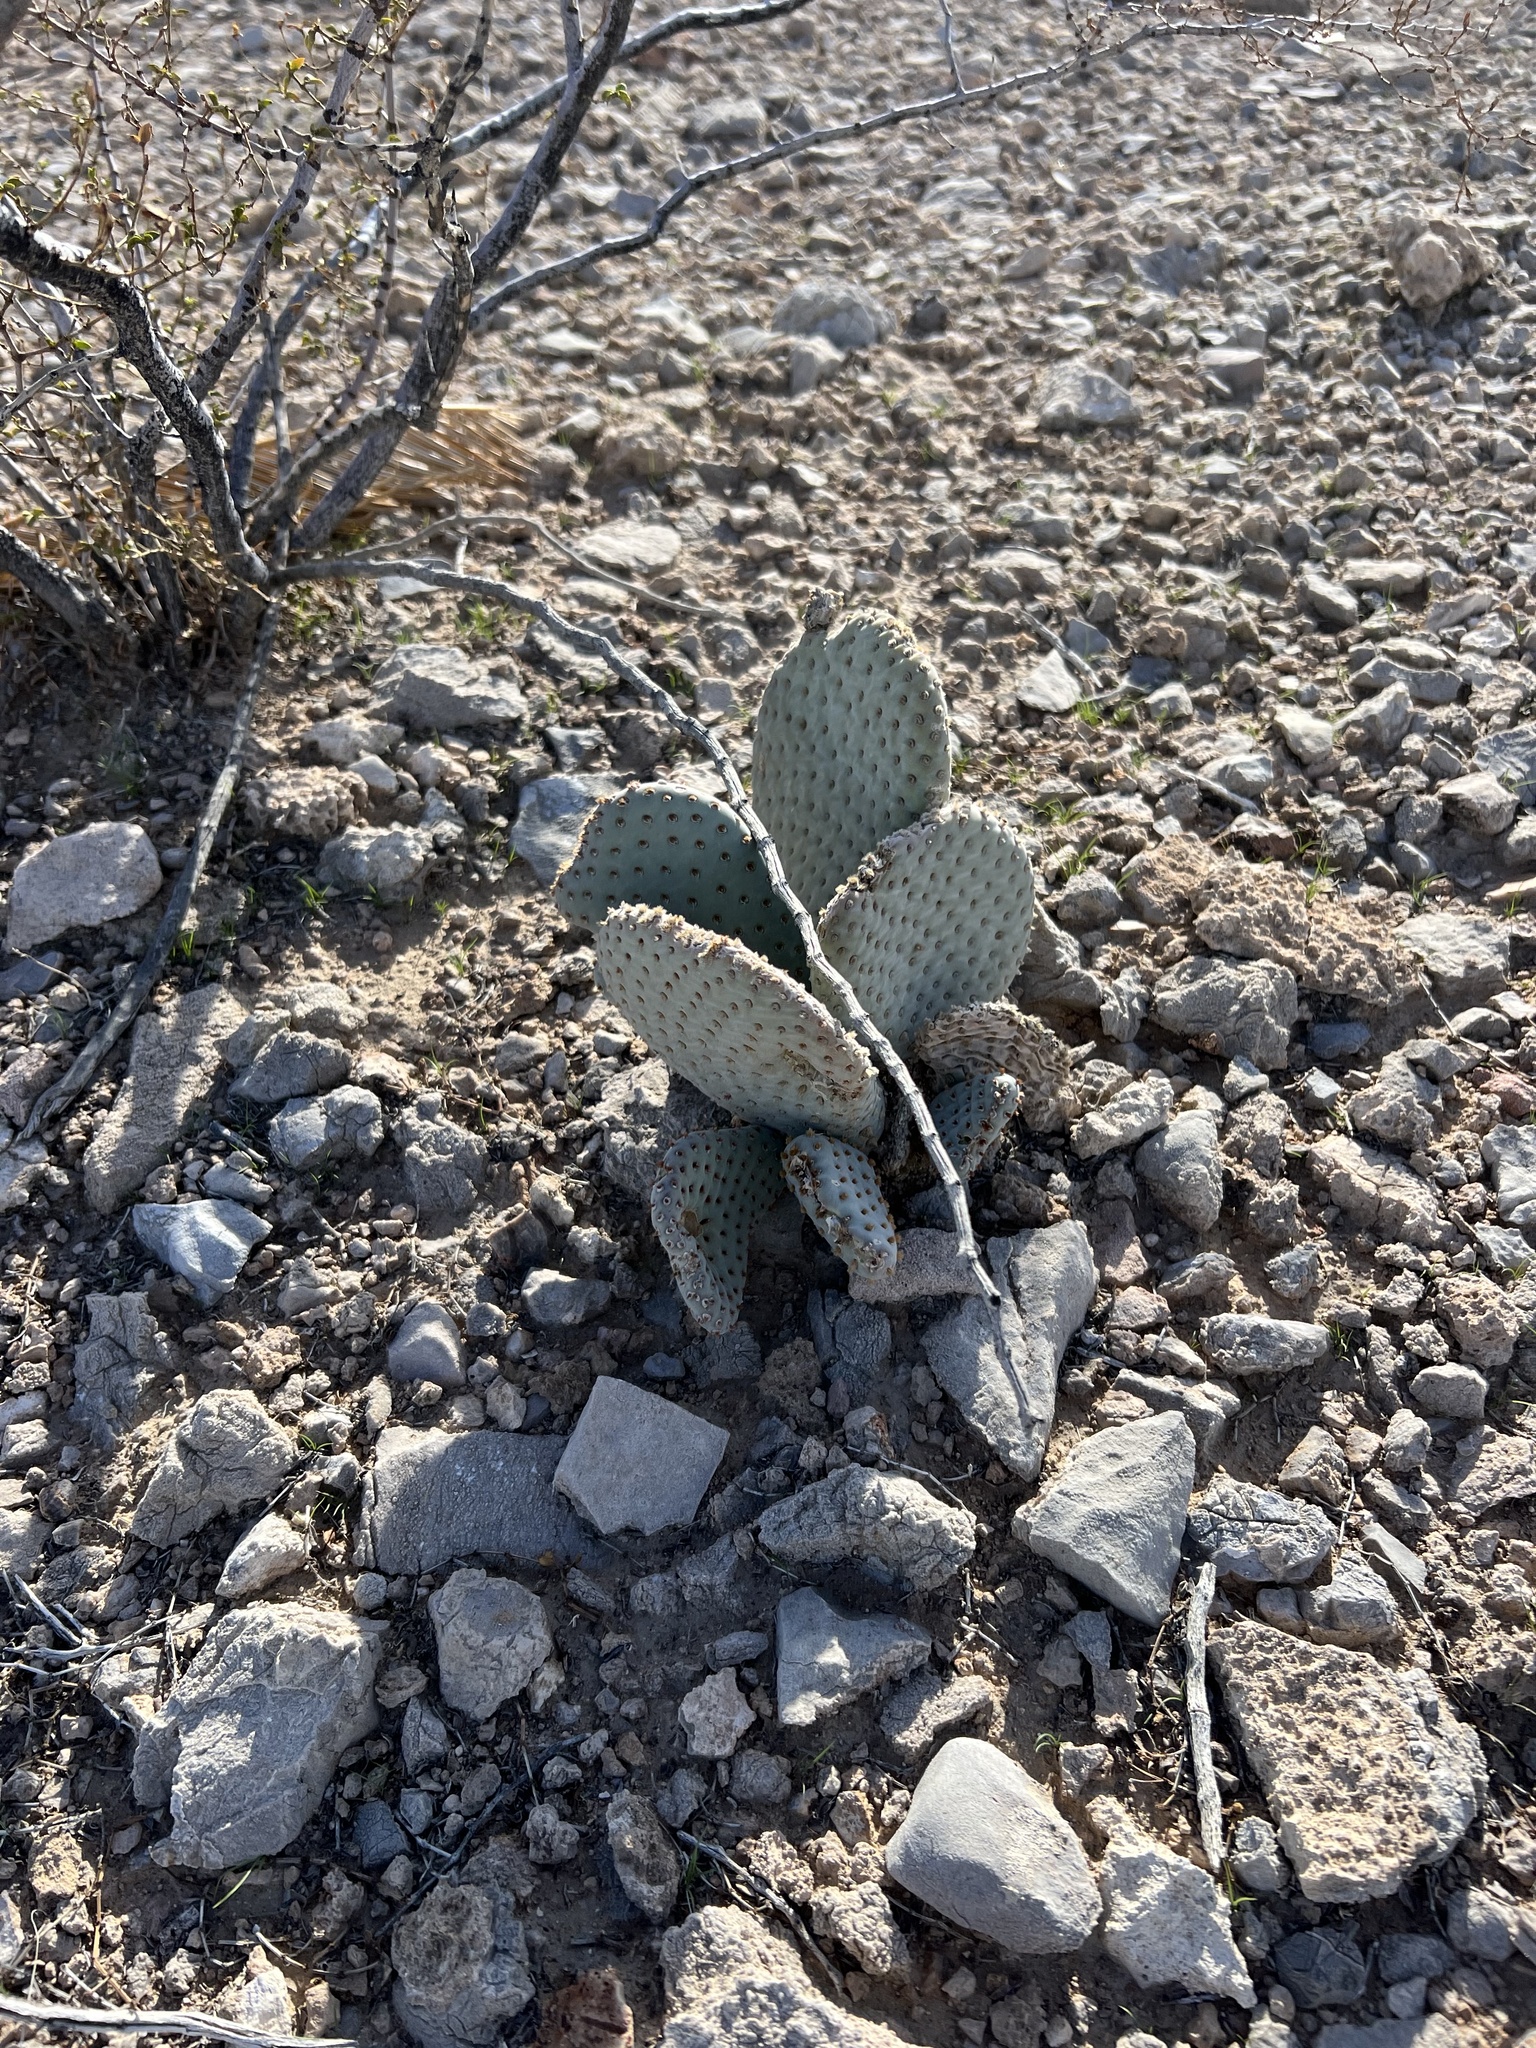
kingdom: Plantae
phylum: Tracheophyta
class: Magnoliopsida
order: Caryophyllales
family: Cactaceae
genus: Opuntia
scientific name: Opuntia basilaris
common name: Beavertail prickly-pear
